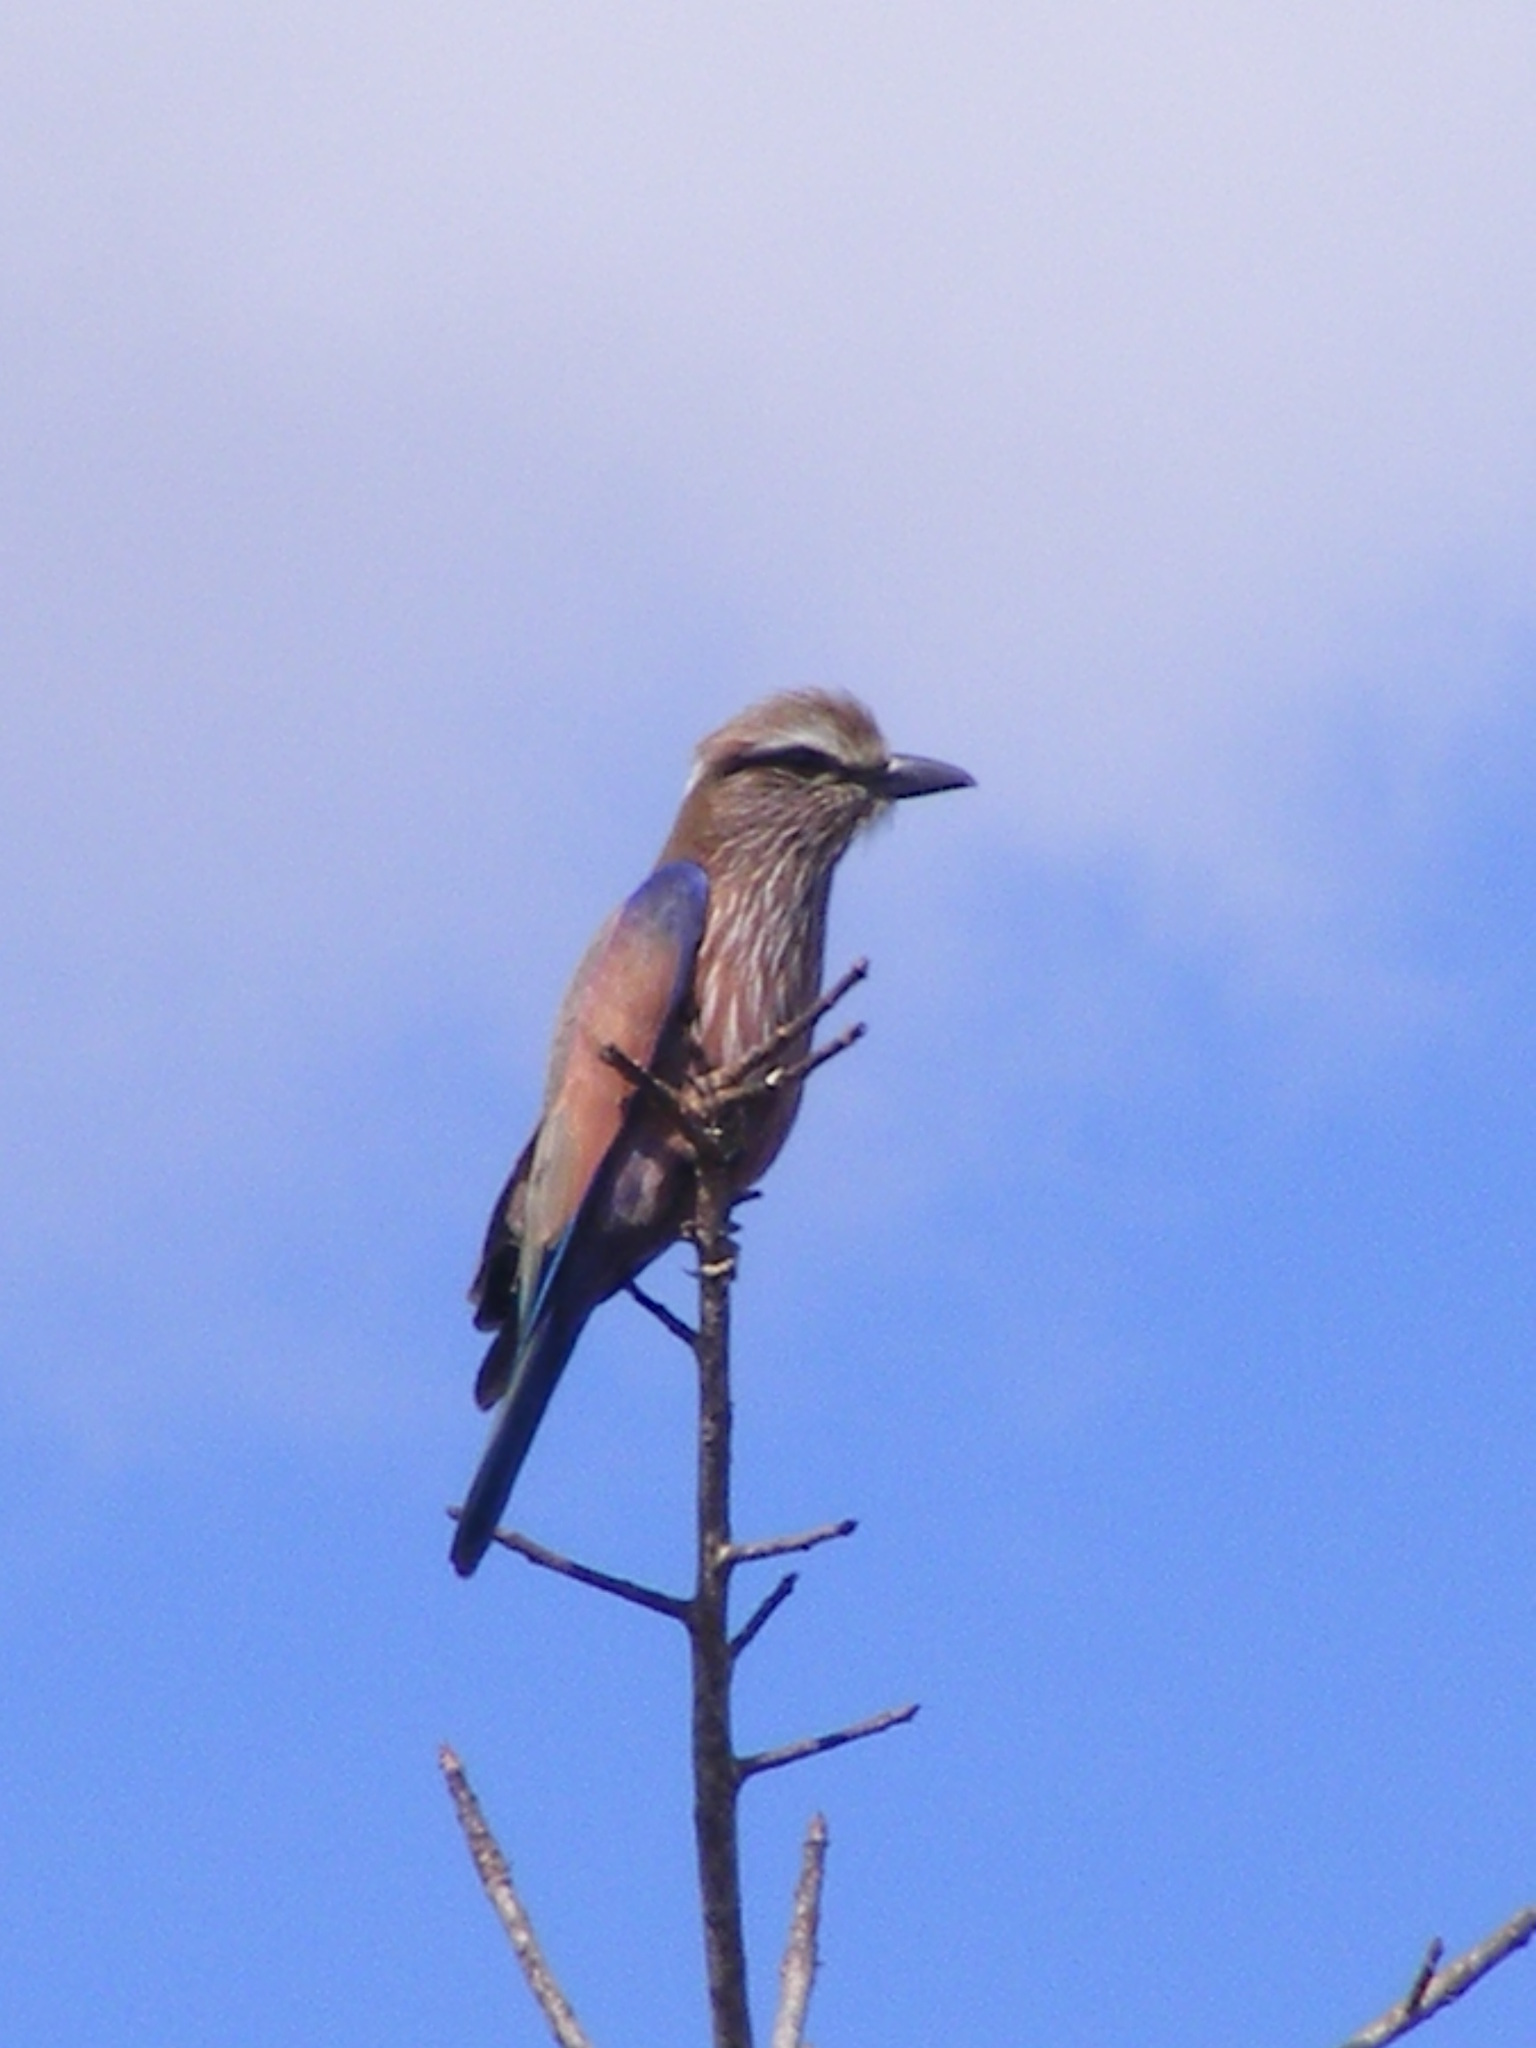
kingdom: Animalia
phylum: Chordata
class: Aves
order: Coraciiformes
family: Coraciidae
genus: Coracias
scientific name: Coracias naevius
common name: Purple roller
